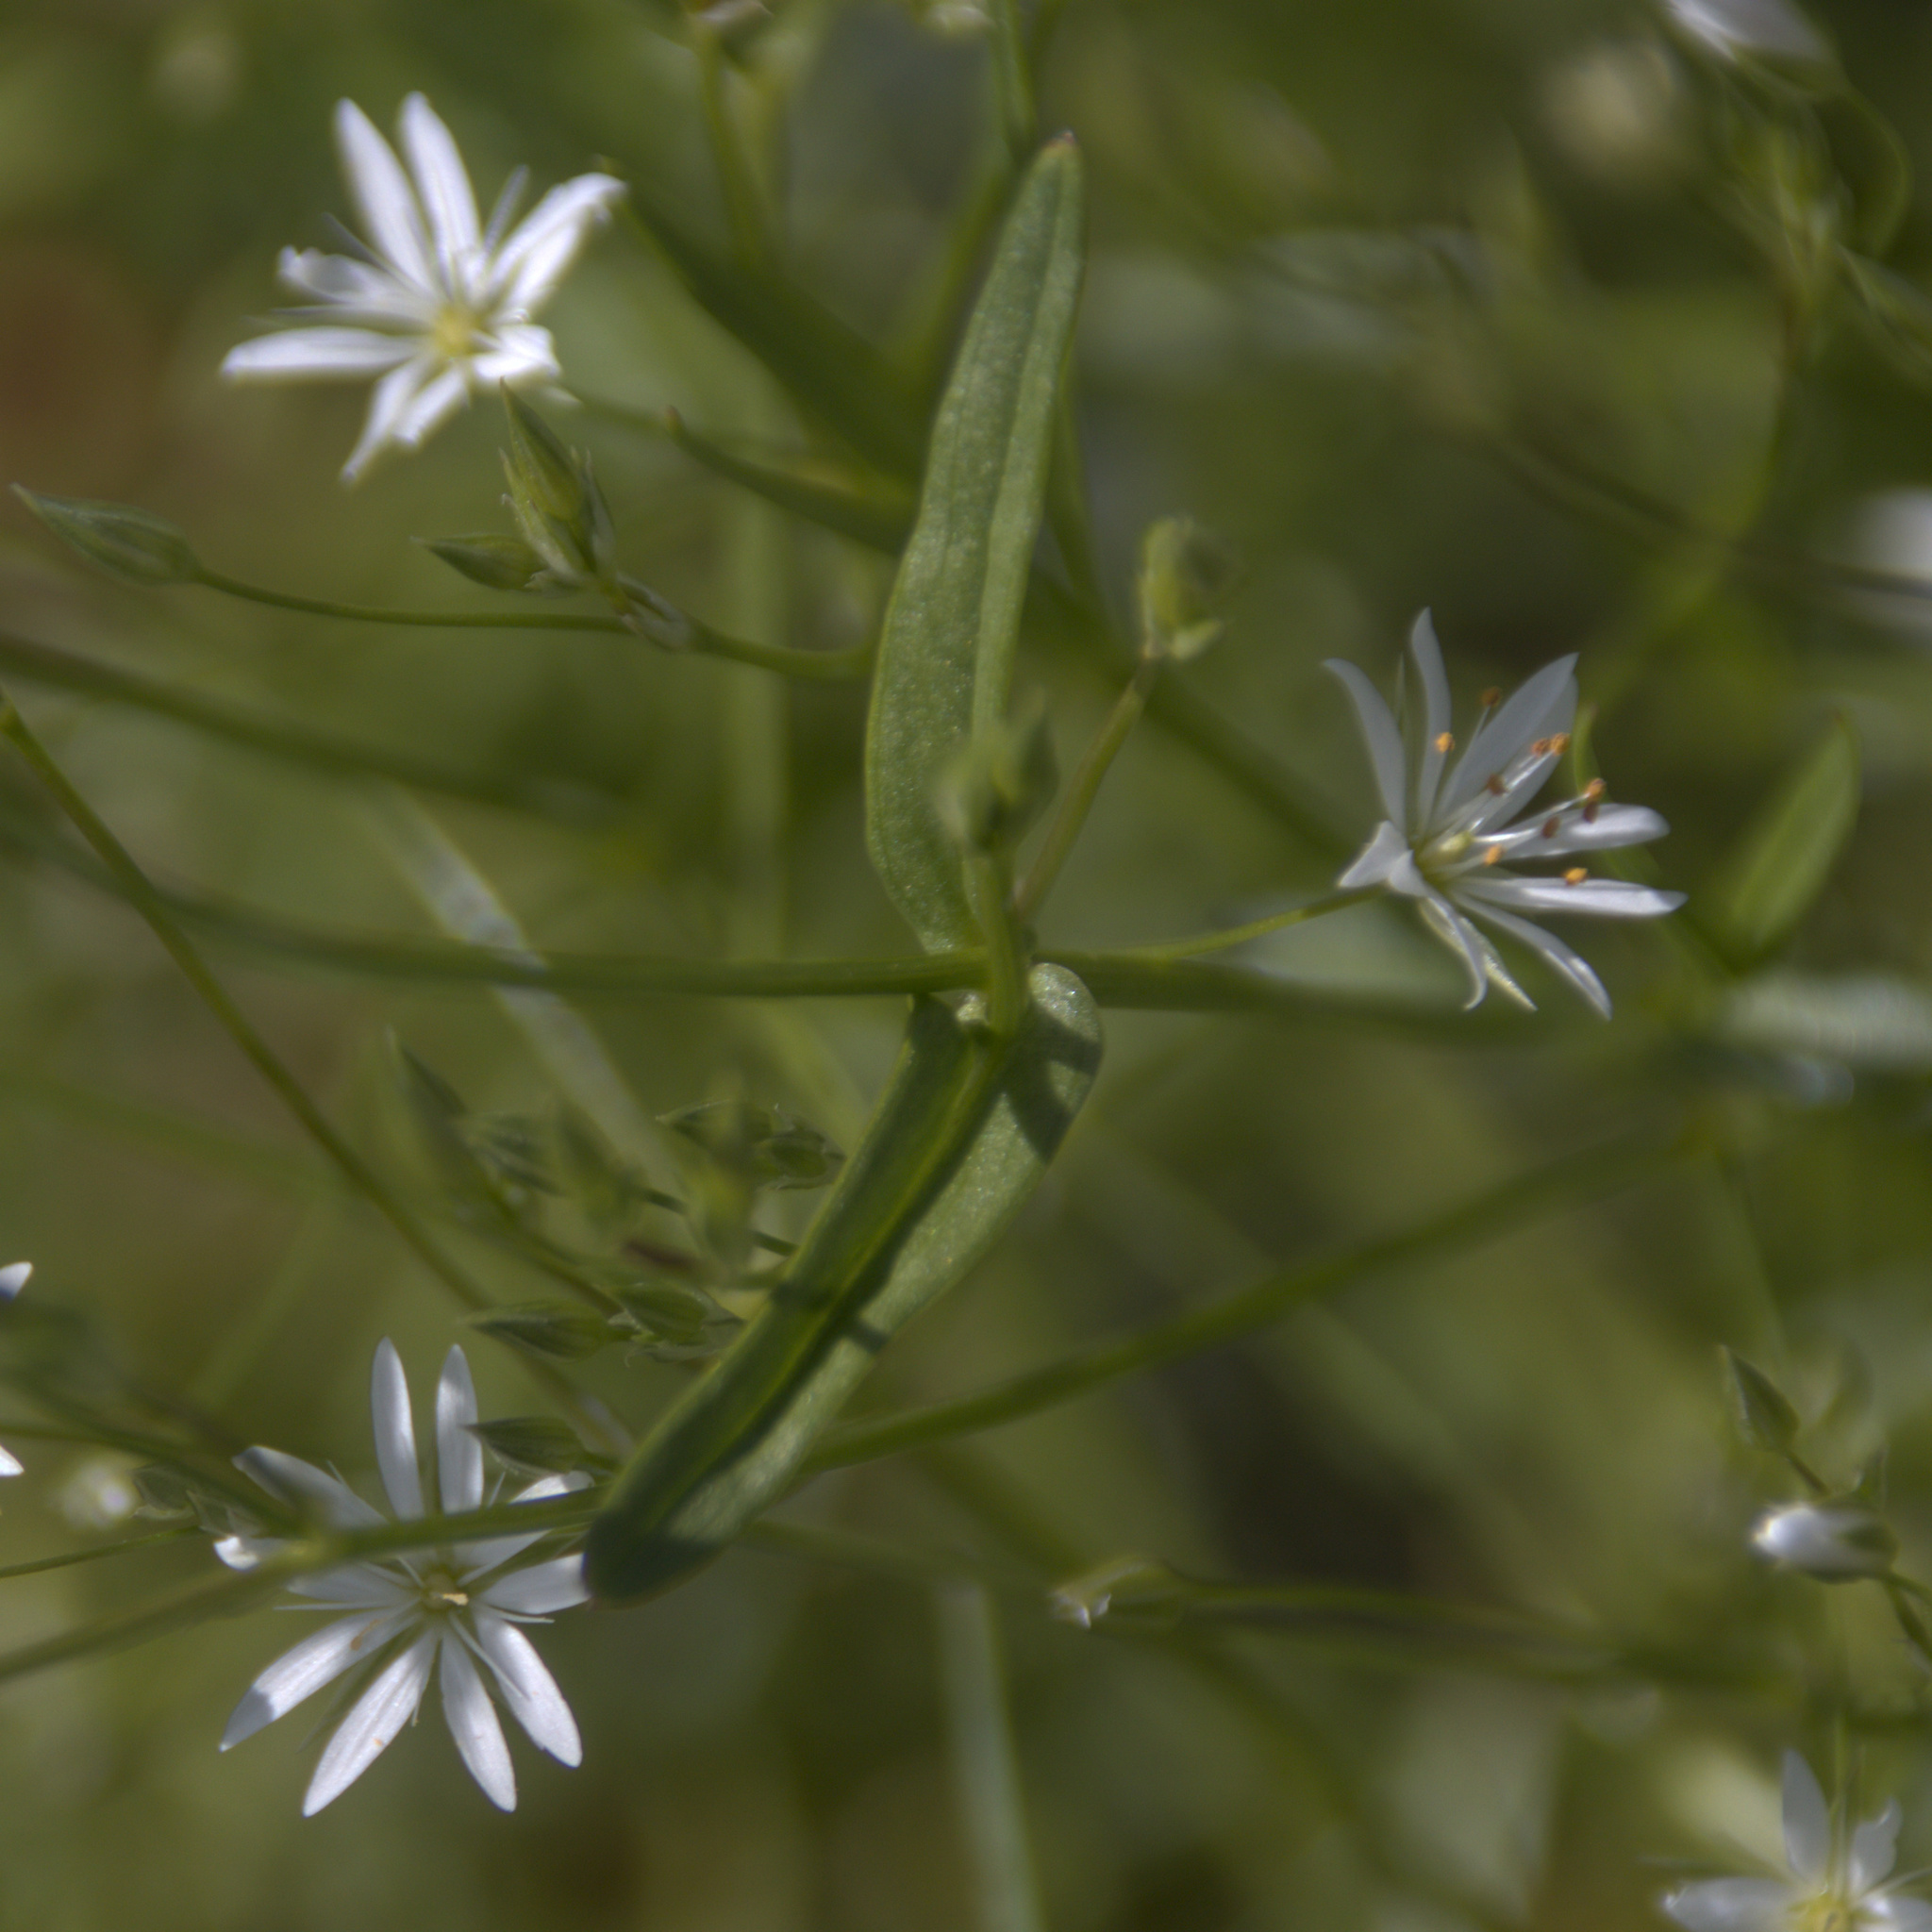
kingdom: Plantae
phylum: Tracheophyta
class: Magnoliopsida
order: Caryophyllales
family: Caryophyllaceae
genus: Stellaria
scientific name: Stellaria graminea
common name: Grass-like starwort
